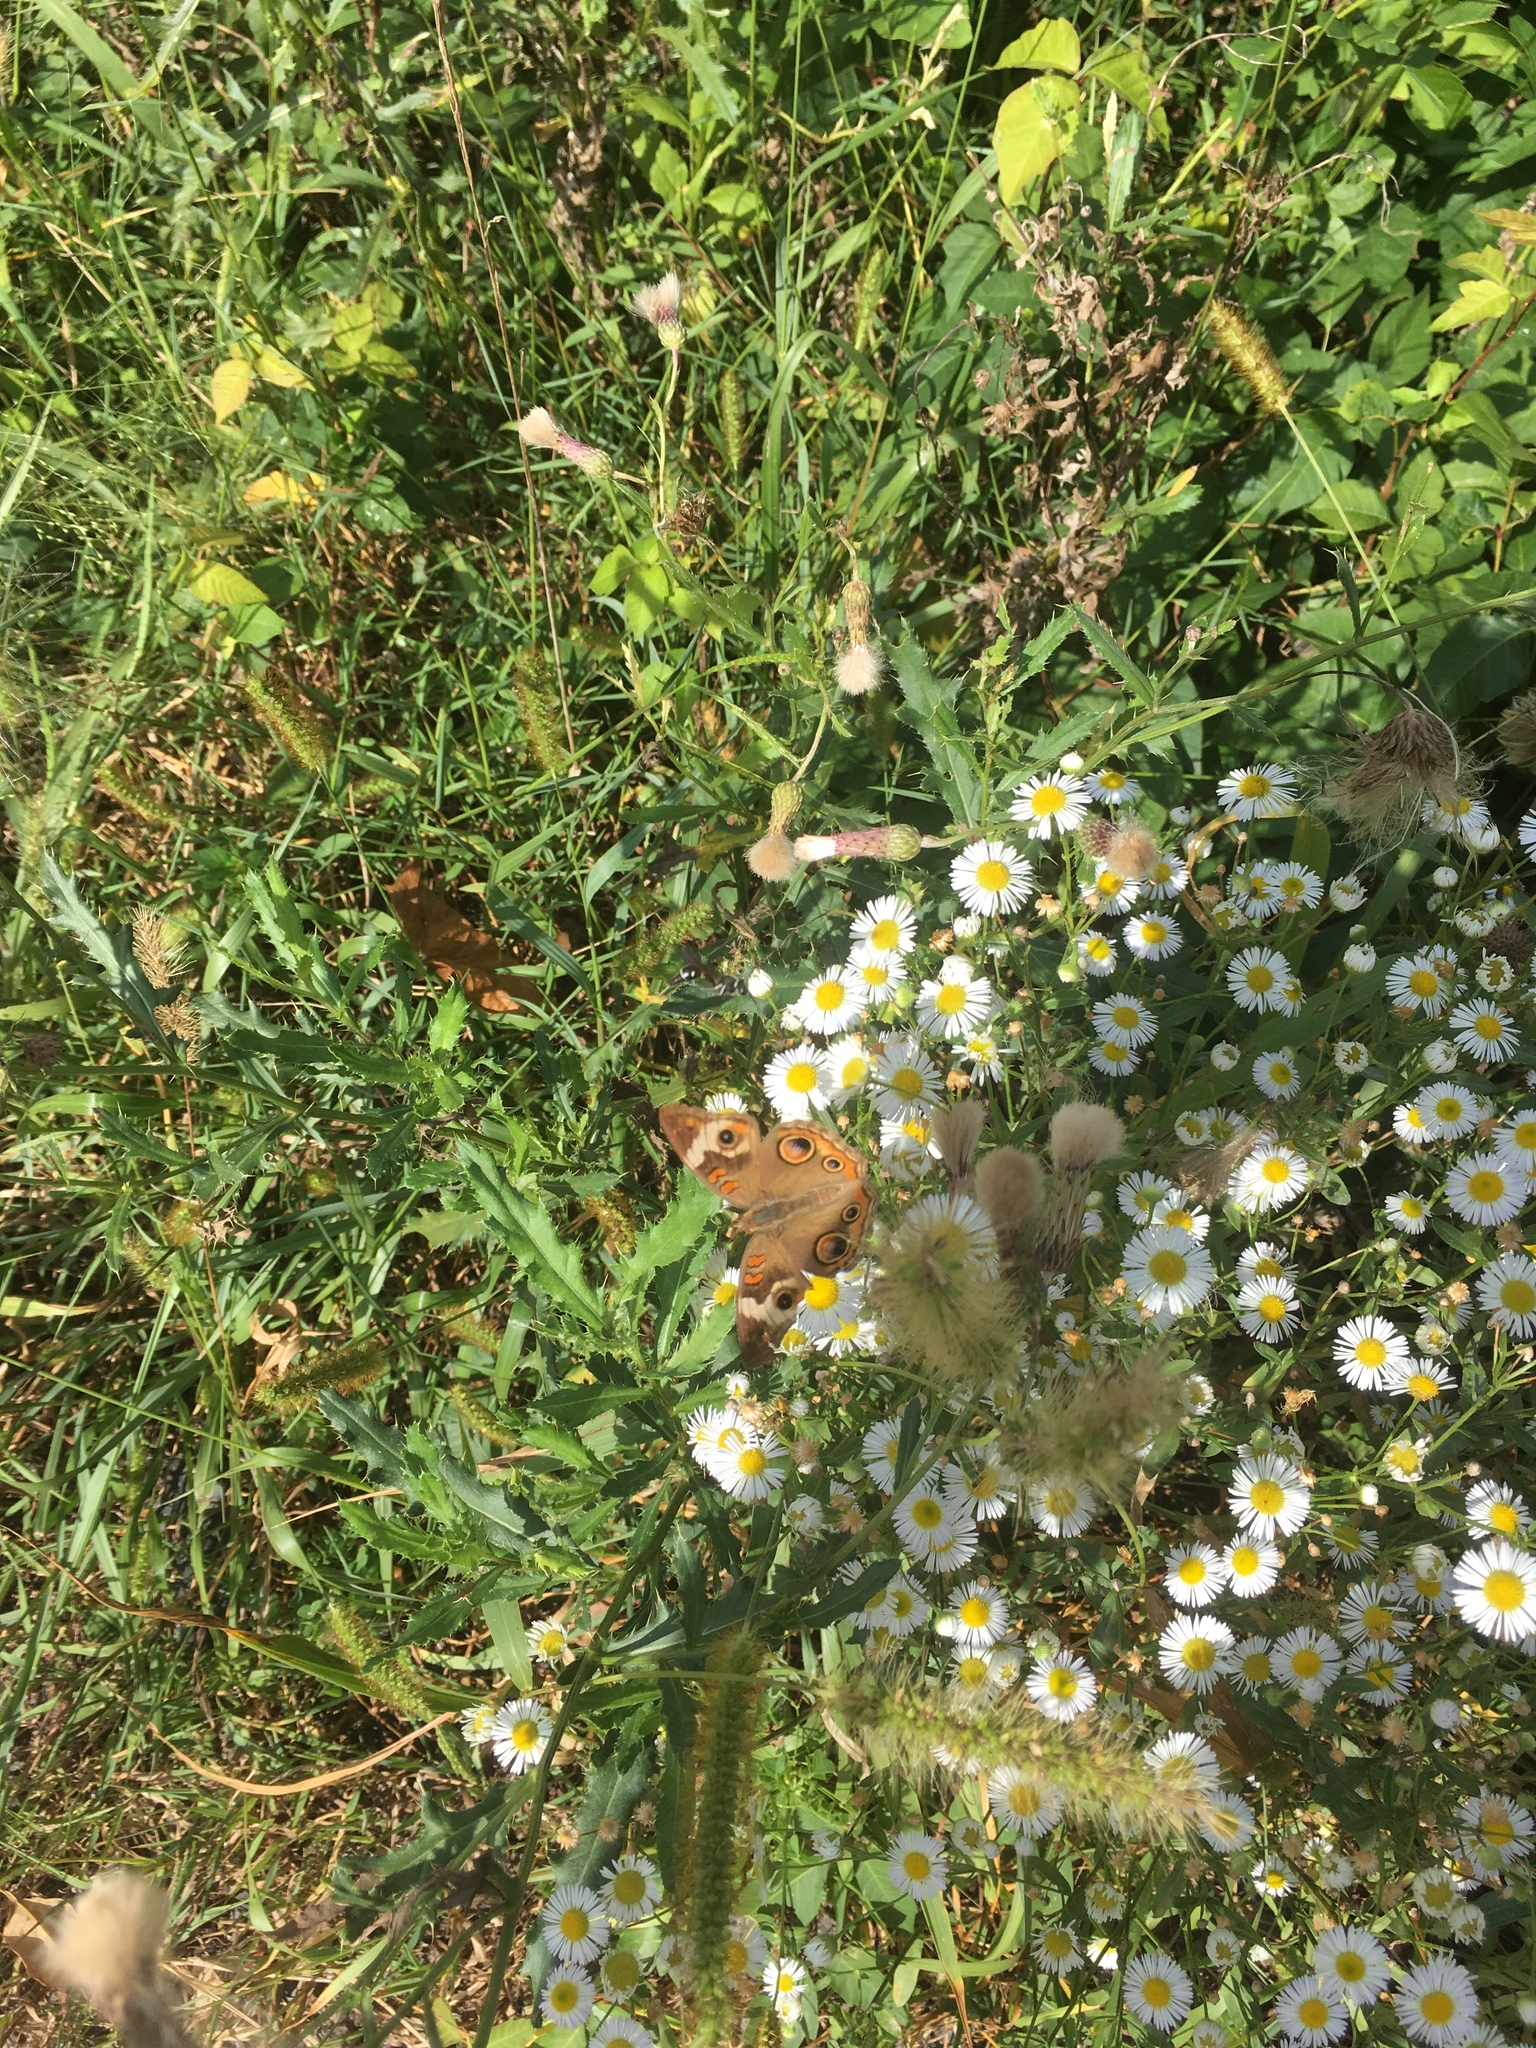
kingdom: Animalia
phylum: Arthropoda
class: Insecta
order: Lepidoptera
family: Nymphalidae
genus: Junonia
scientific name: Junonia coenia
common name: Common buckeye
